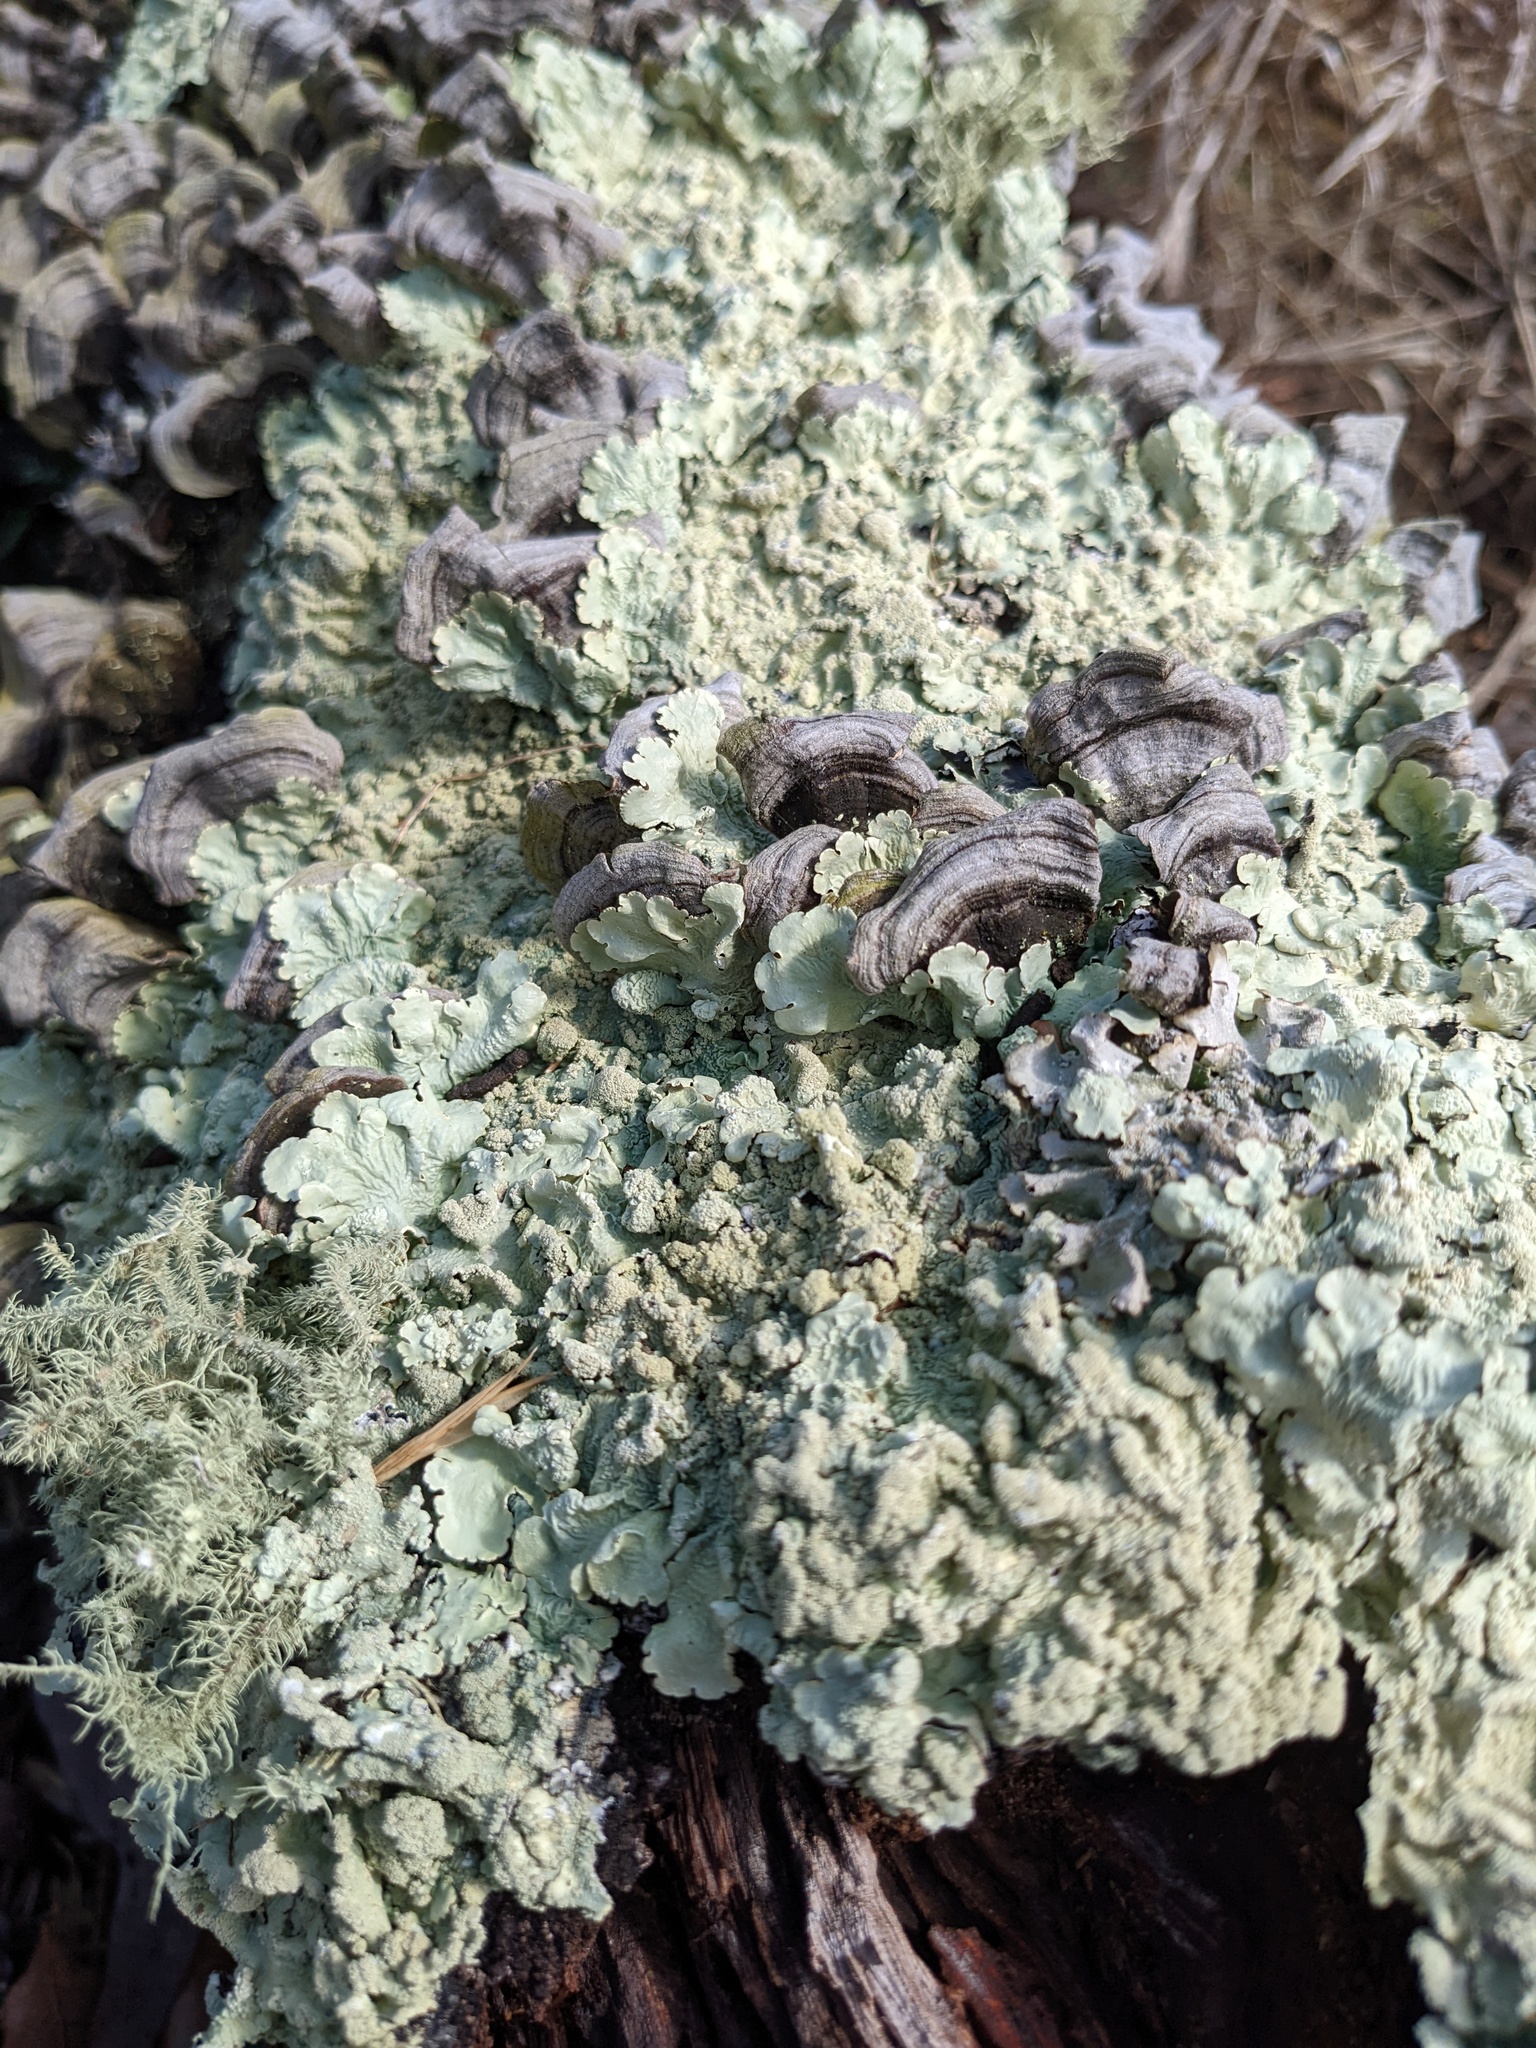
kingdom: Fungi
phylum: Ascomycota
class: Lecanoromycetes
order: Lecanorales
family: Parmeliaceae
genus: Flavoparmelia
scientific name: Flavoparmelia caperata
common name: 40-mile per hour lichen
